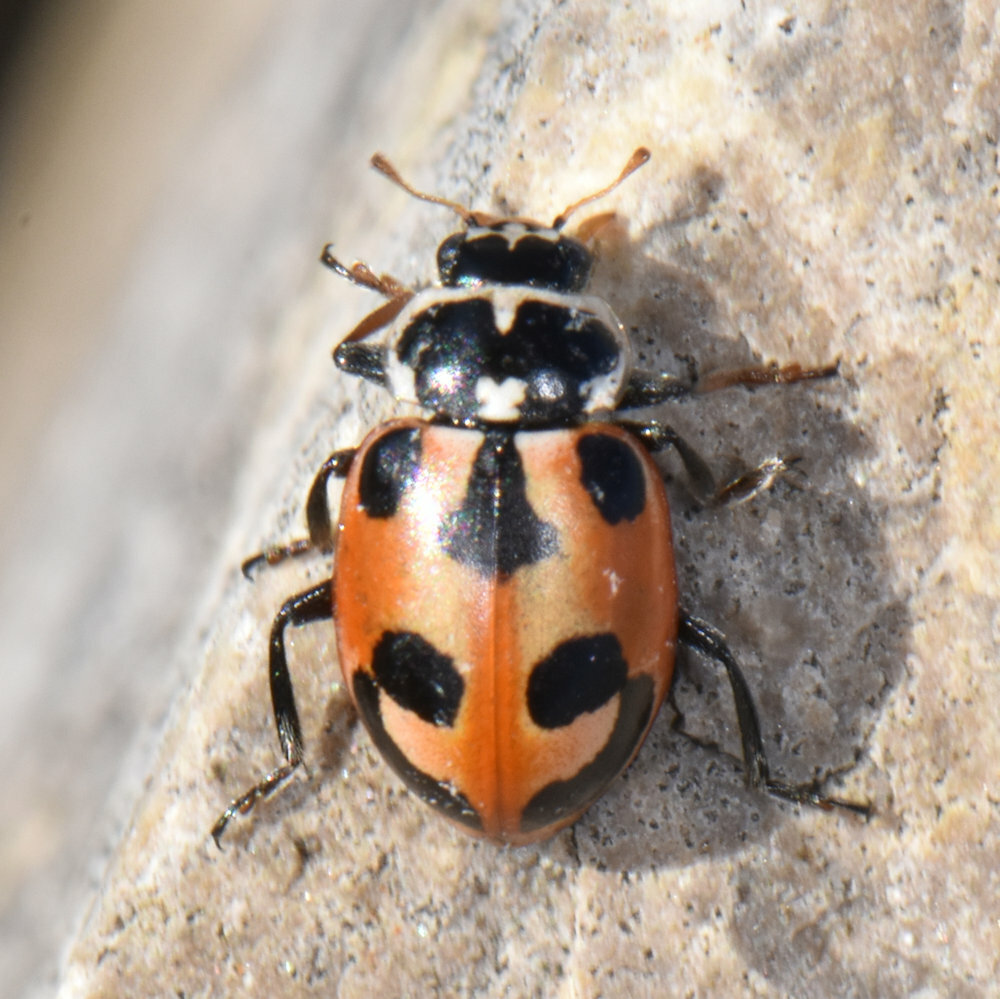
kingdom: Animalia
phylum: Arthropoda
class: Insecta
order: Coleoptera
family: Coccinellidae
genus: Hippodamia
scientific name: Hippodamia parenthesis
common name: Parenthesis lady beetle
